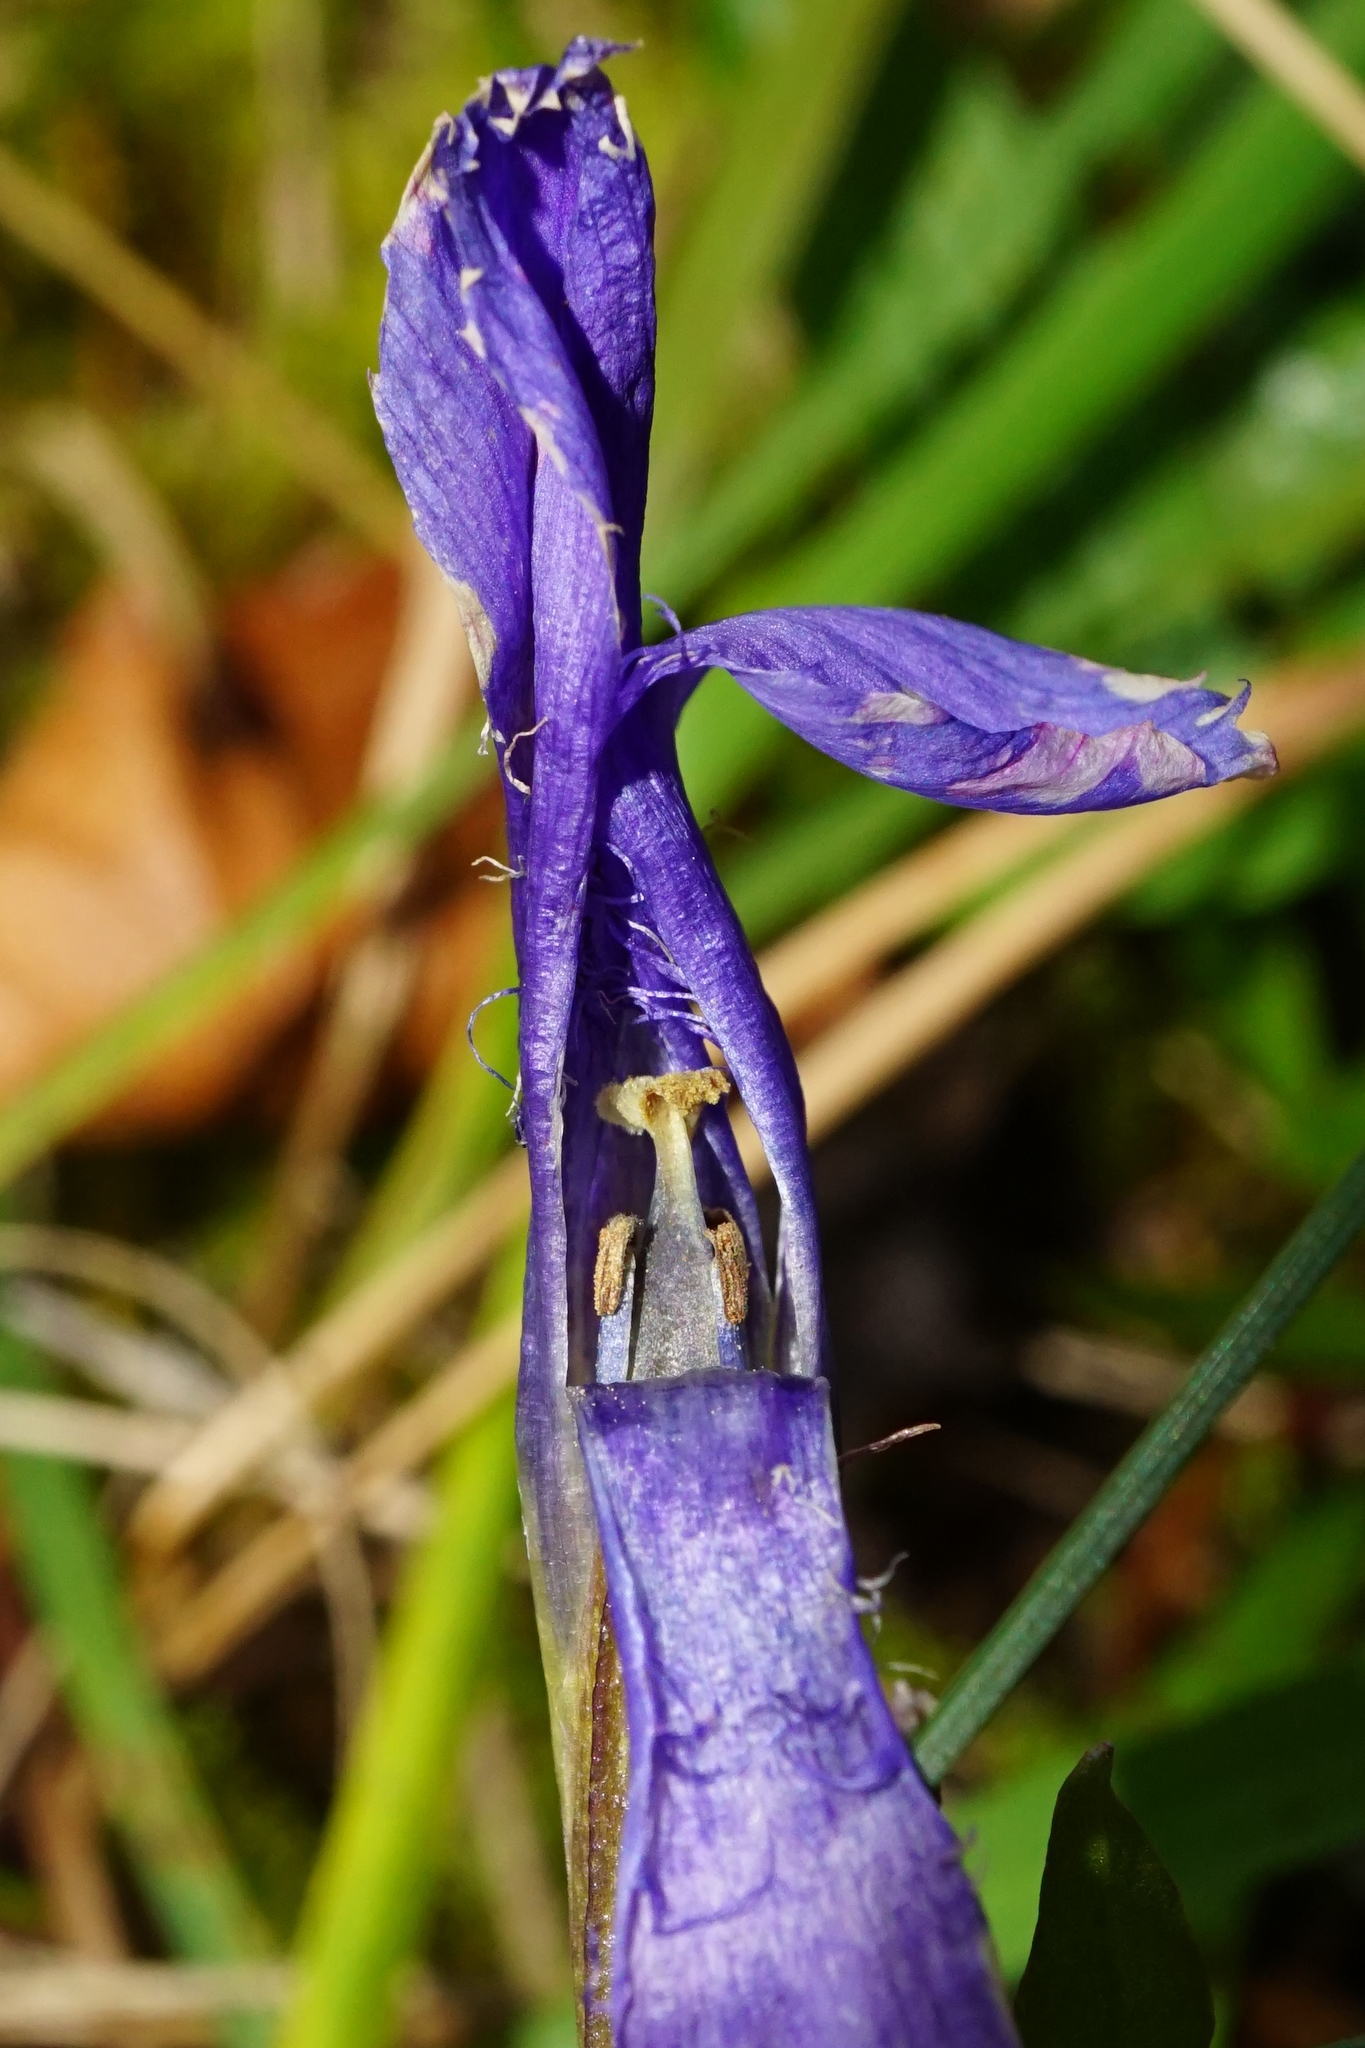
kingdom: Plantae
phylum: Tracheophyta
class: Magnoliopsida
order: Gentianales
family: Gentianaceae
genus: Gentianopsis
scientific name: Gentianopsis ciliata
